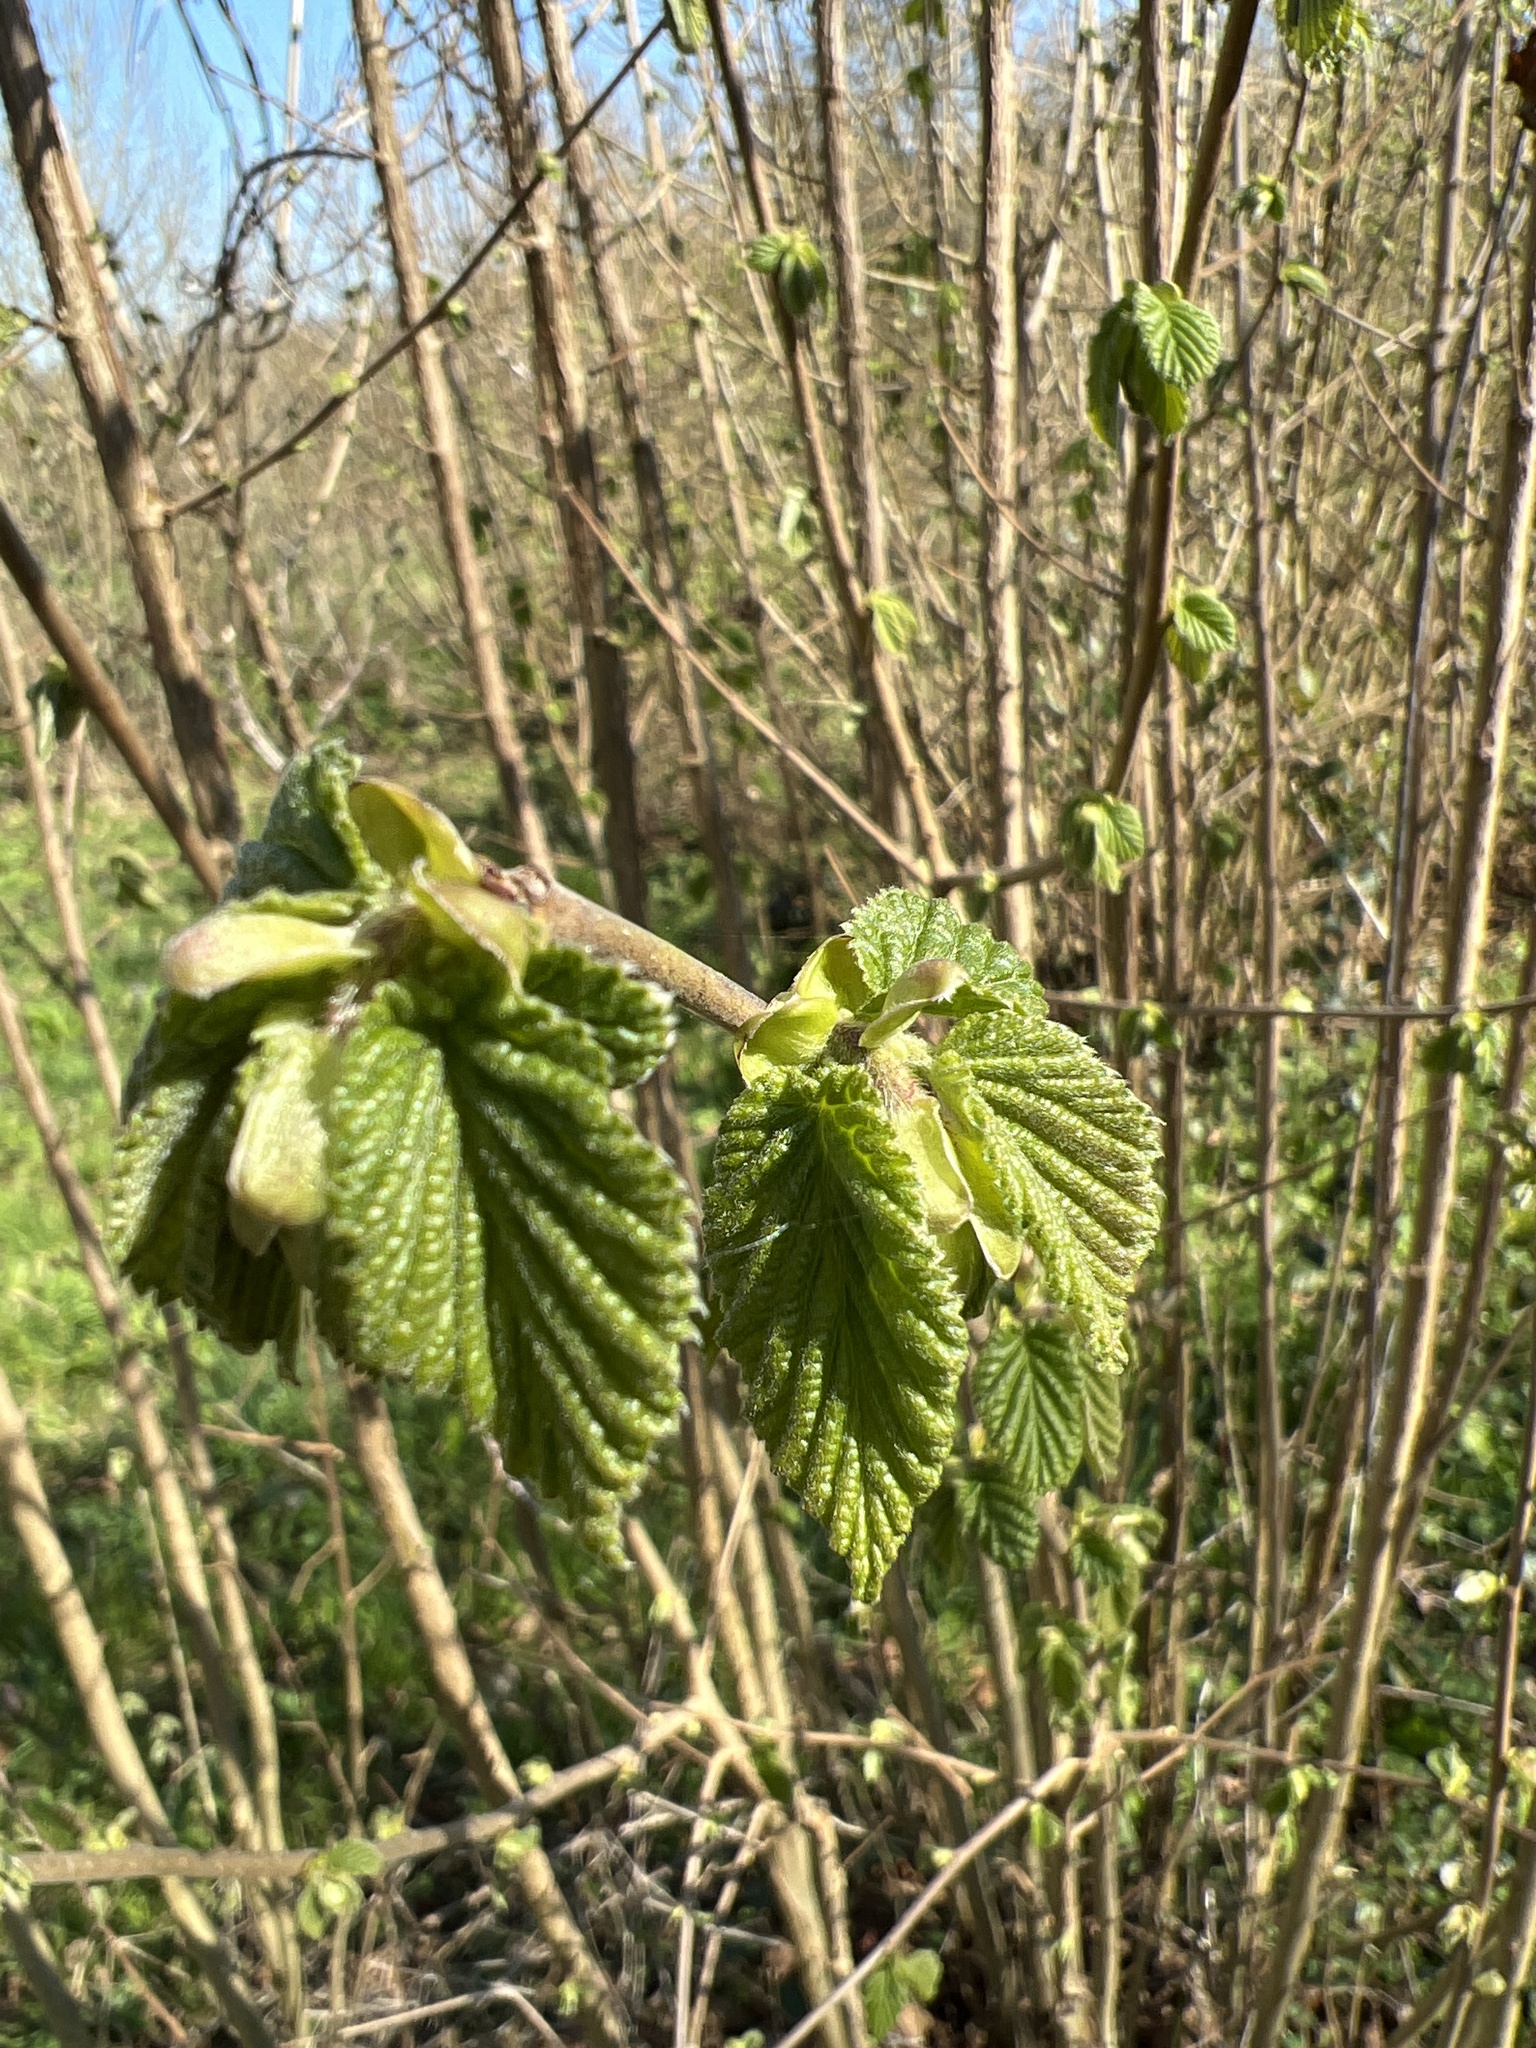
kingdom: Plantae
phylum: Tracheophyta
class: Magnoliopsida
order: Fagales
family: Betulaceae
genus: Corylus
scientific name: Corylus avellana
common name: European hazel
